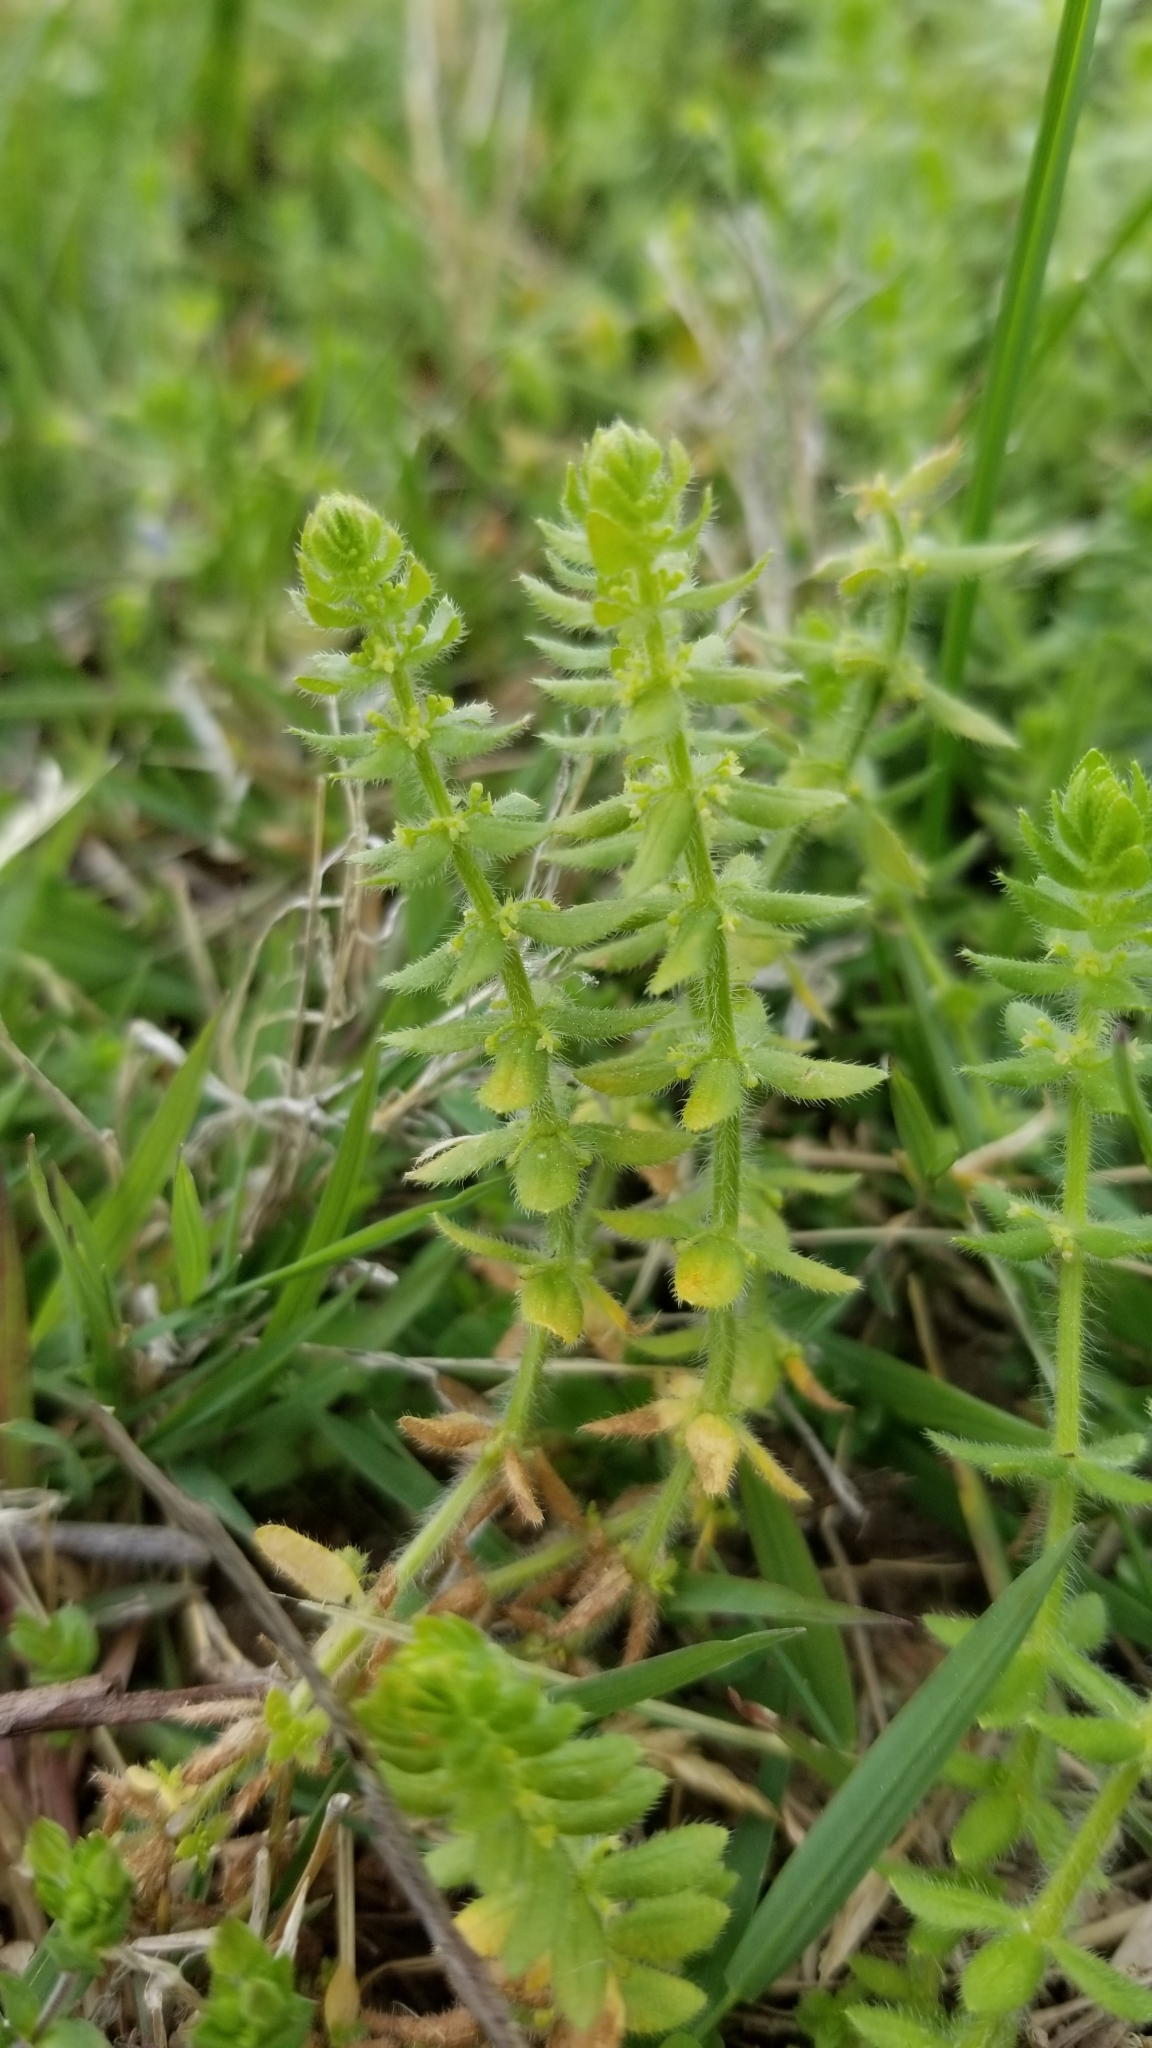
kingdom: Plantae
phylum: Tracheophyta
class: Magnoliopsida
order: Gentianales
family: Rubiaceae
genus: Cruciata
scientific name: Cruciata pedemontana
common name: Piedmont bedstraw
